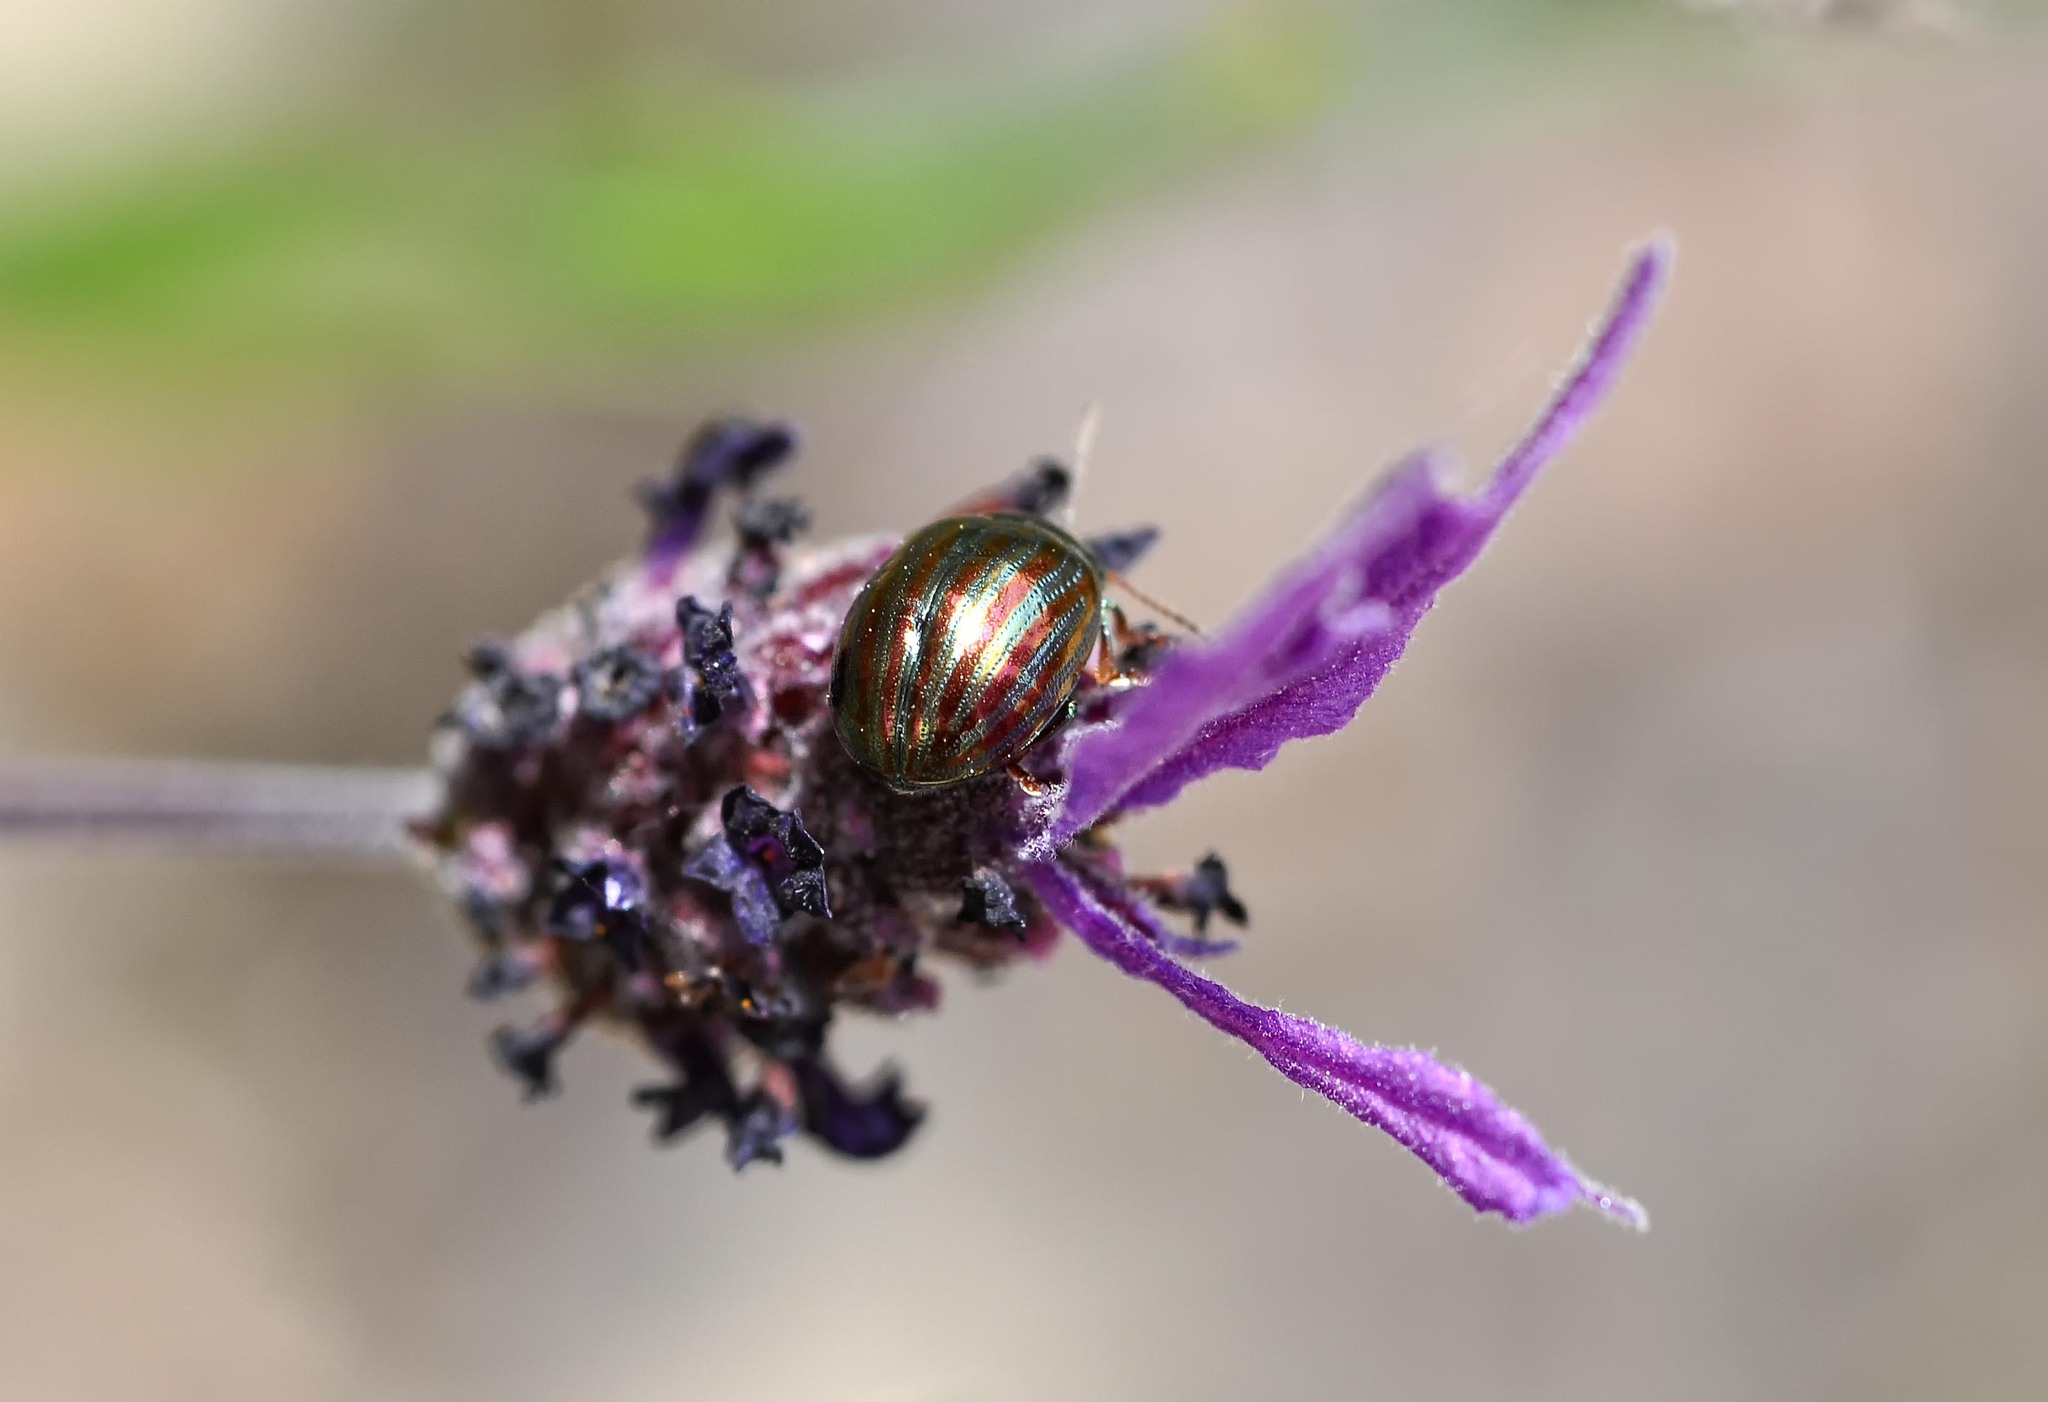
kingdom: Animalia
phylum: Arthropoda
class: Insecta
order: Coleoptera
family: Chrysomelidae
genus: Chrysolina
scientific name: Chrysolina americana
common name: Rosemary beetle
